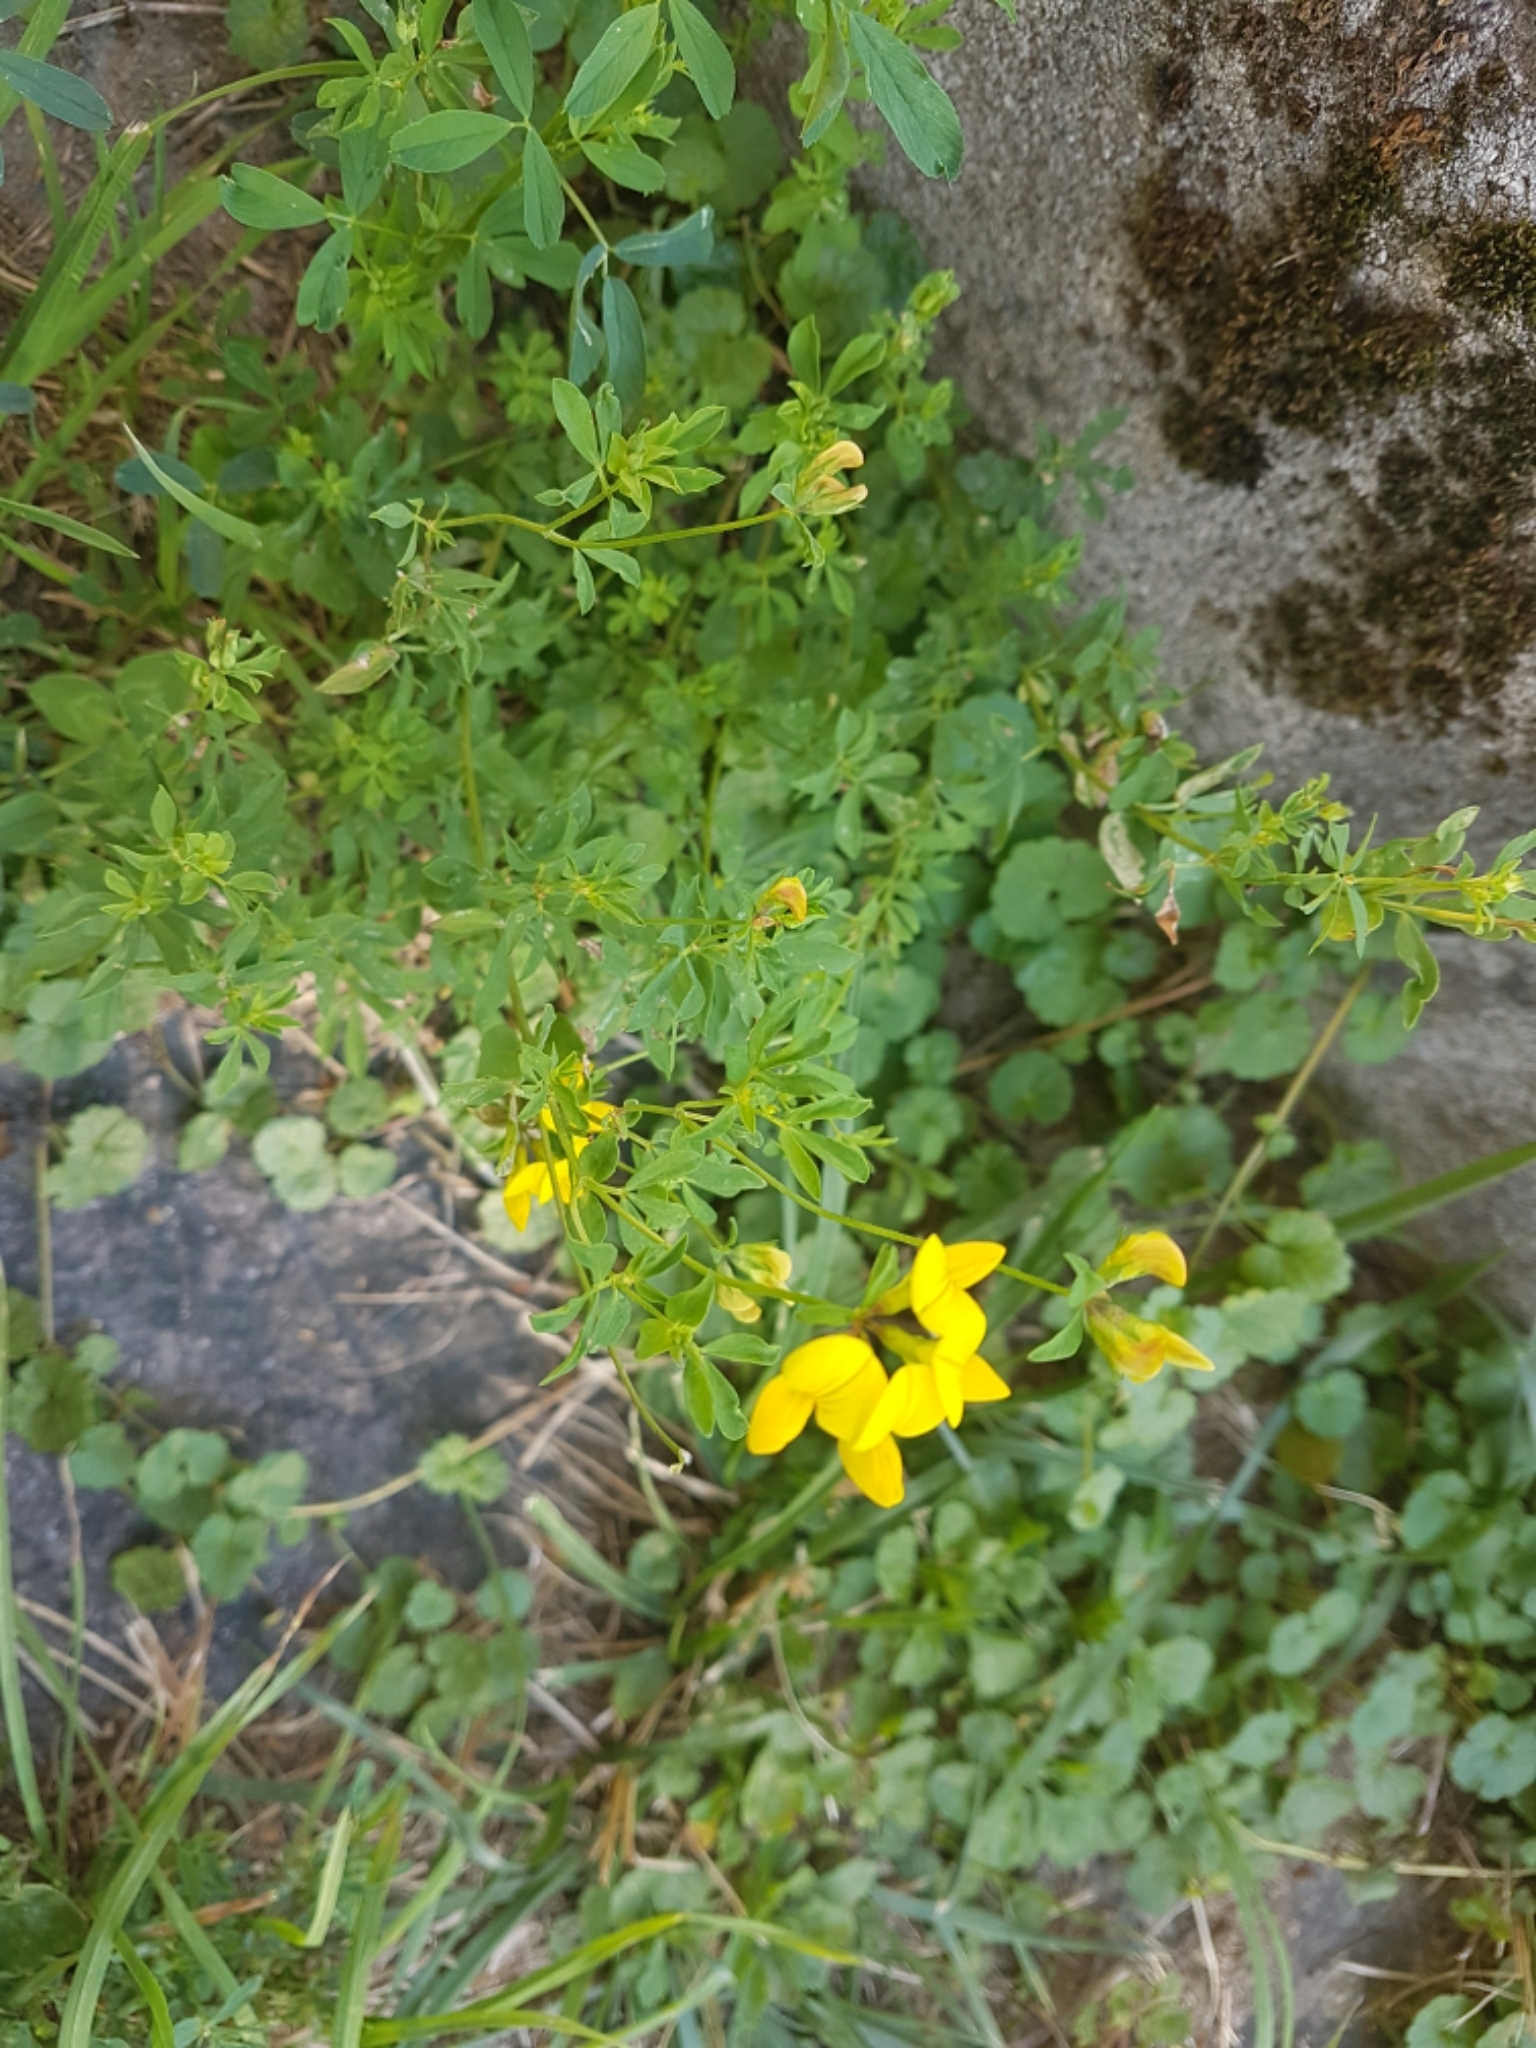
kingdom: Plantae
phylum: Tracheophyta
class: Magnoliopsida
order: Fabales
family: Fabaceae
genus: Lotus
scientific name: Lotus corniculatus
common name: Common bird's-foot-trefoil
